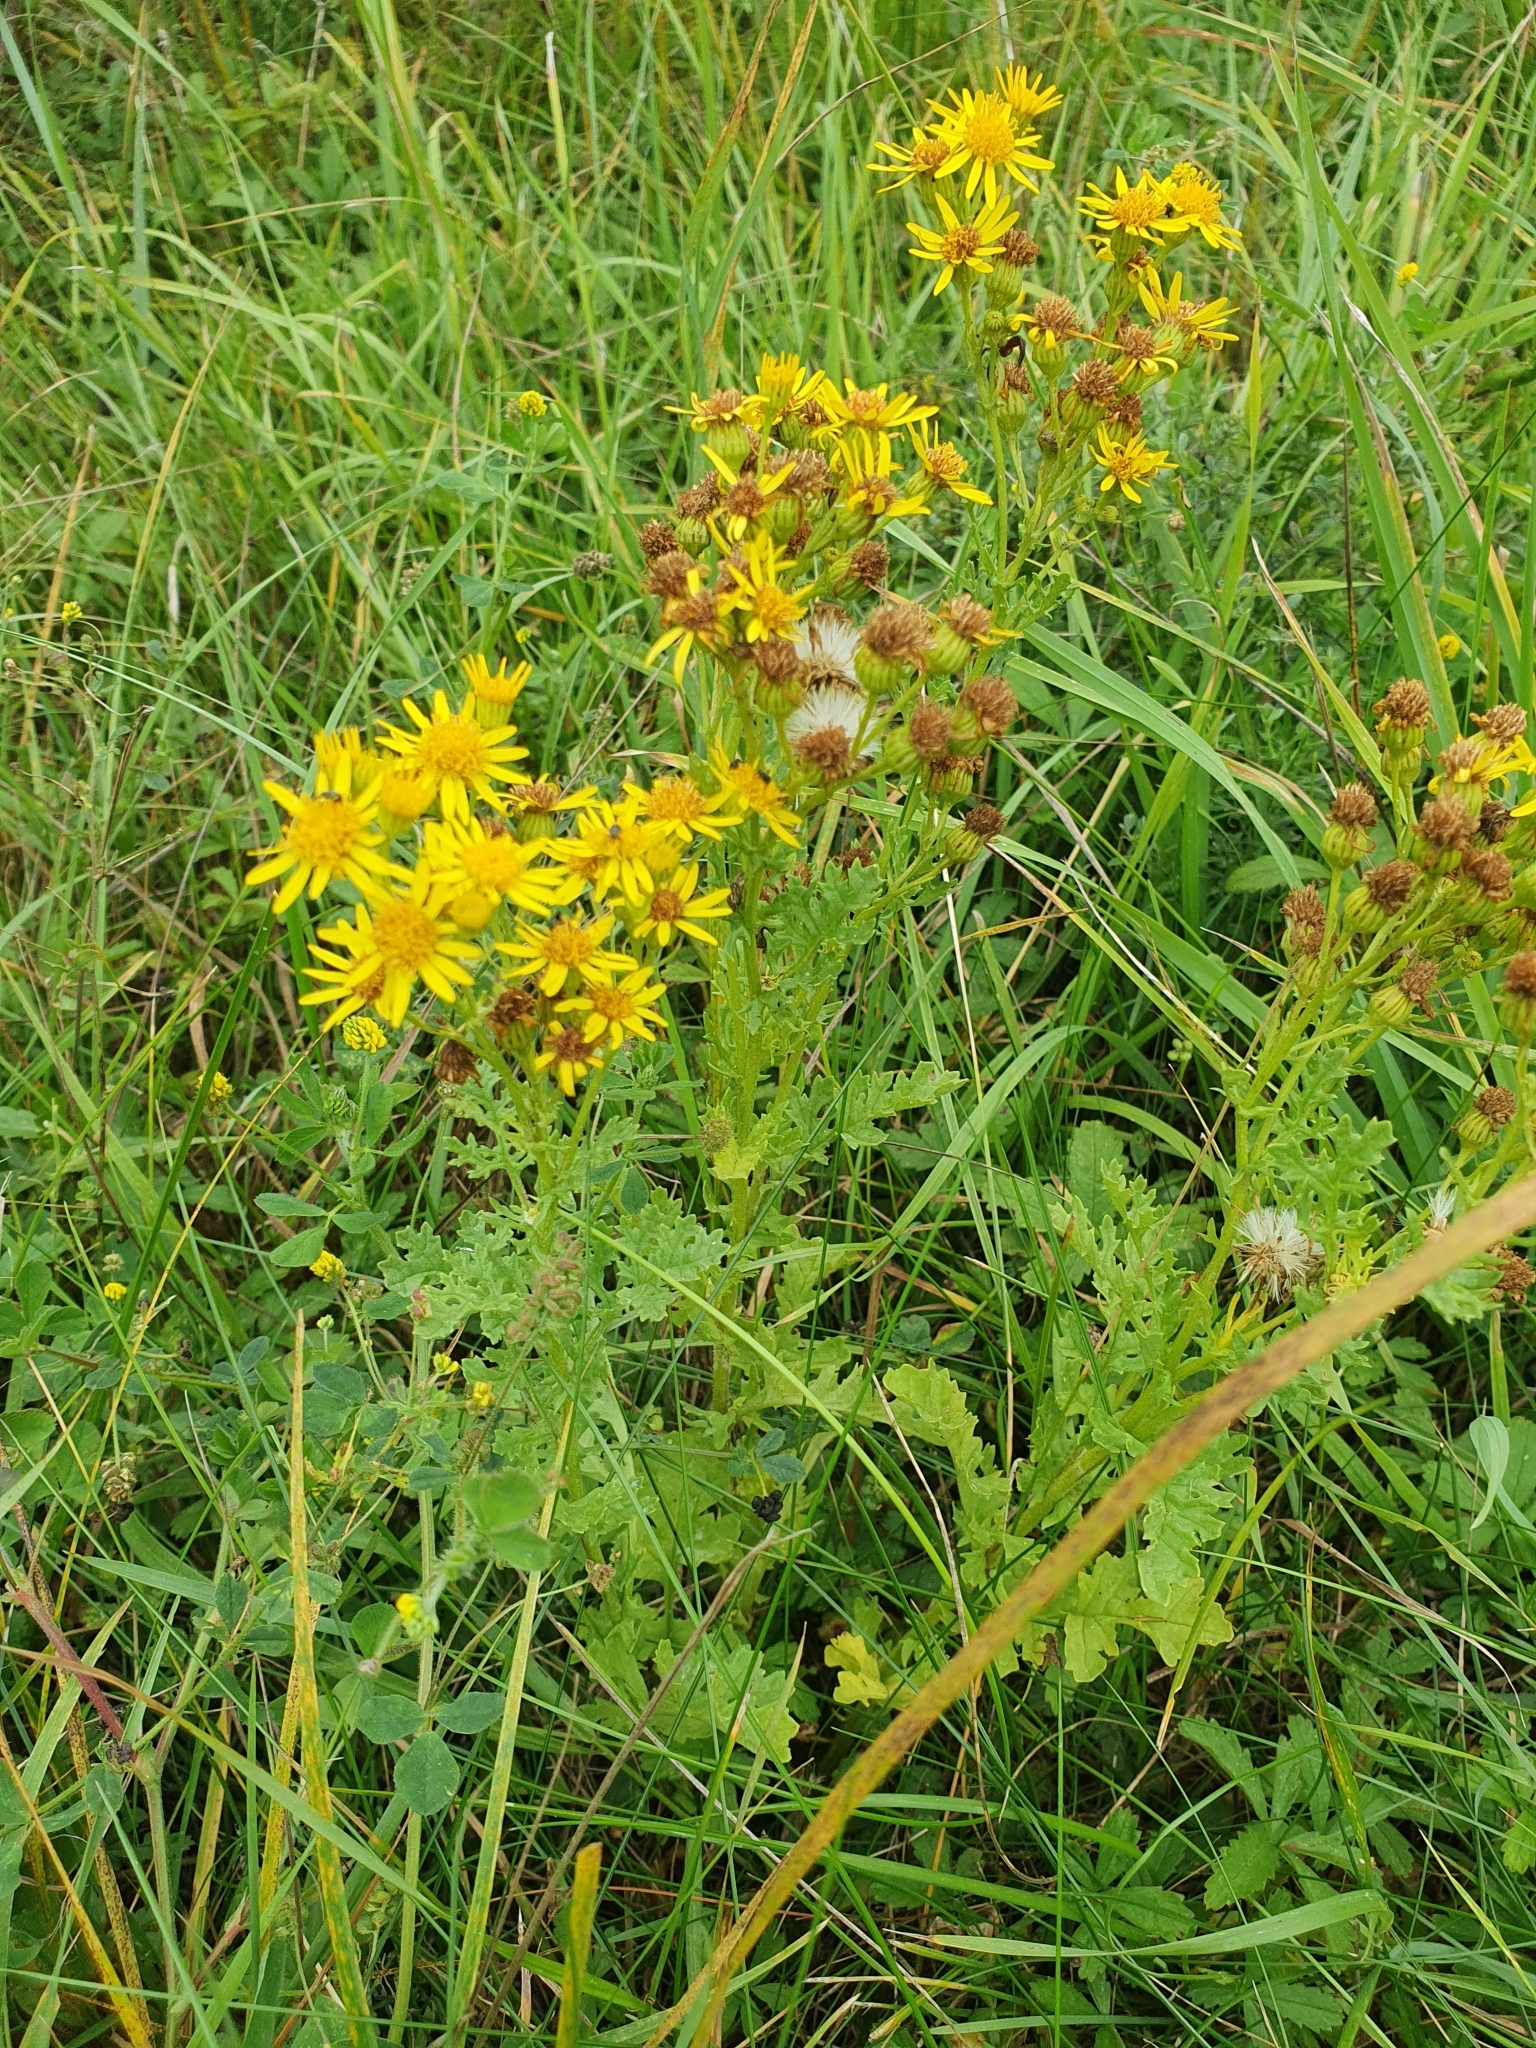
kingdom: Plantae
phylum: Tracheophyta
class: Magnoliopsida
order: Asterales
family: Asteraceae
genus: Jacobaea
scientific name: Jacobaea vulgaris
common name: Stinking willie
